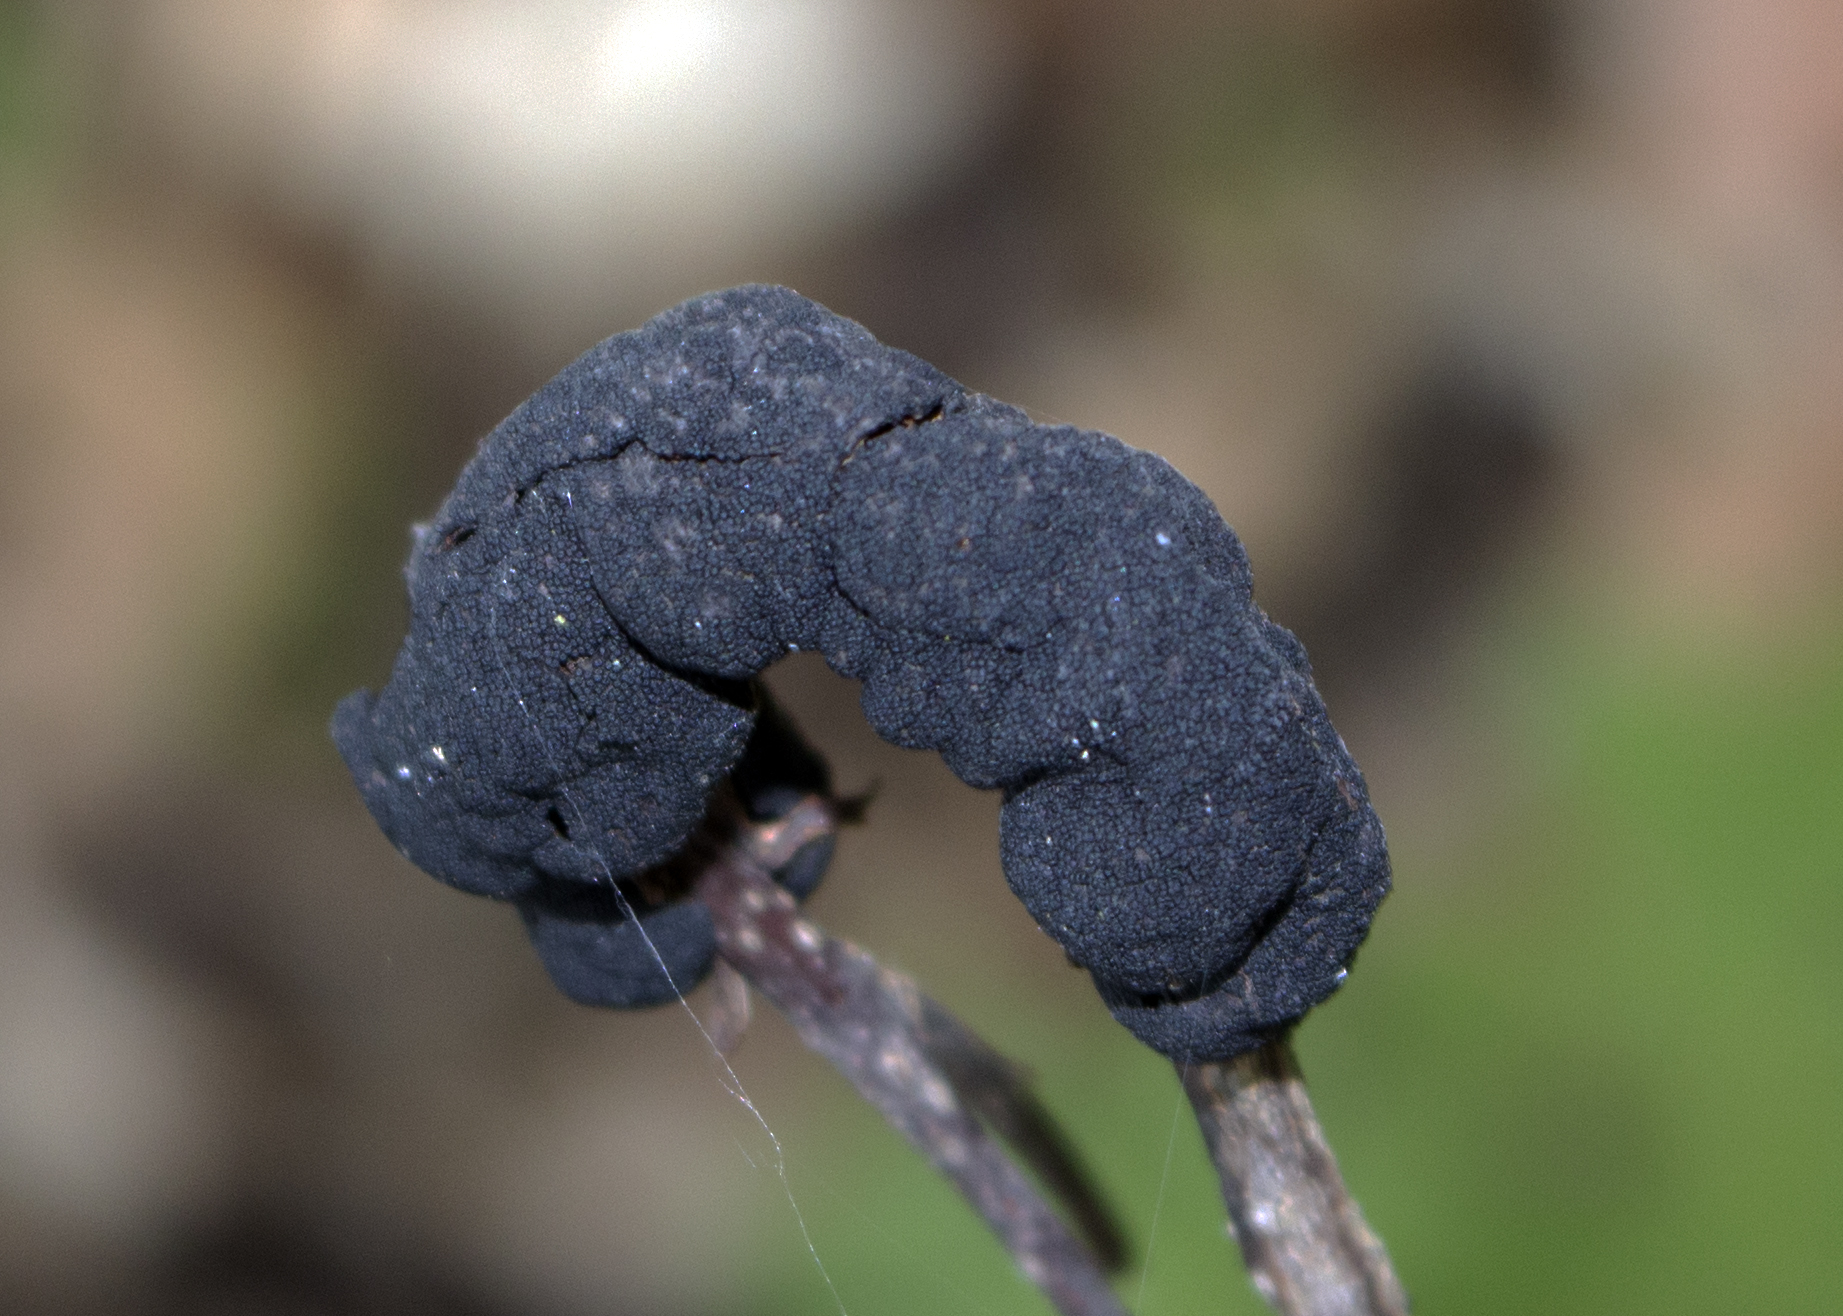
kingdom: Fungi
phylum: Ascomycota
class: Dothideomycetes
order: Venturiales
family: Venturiaceae
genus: Apiosporina
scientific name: Apiosporina morbosa
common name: Black knot
